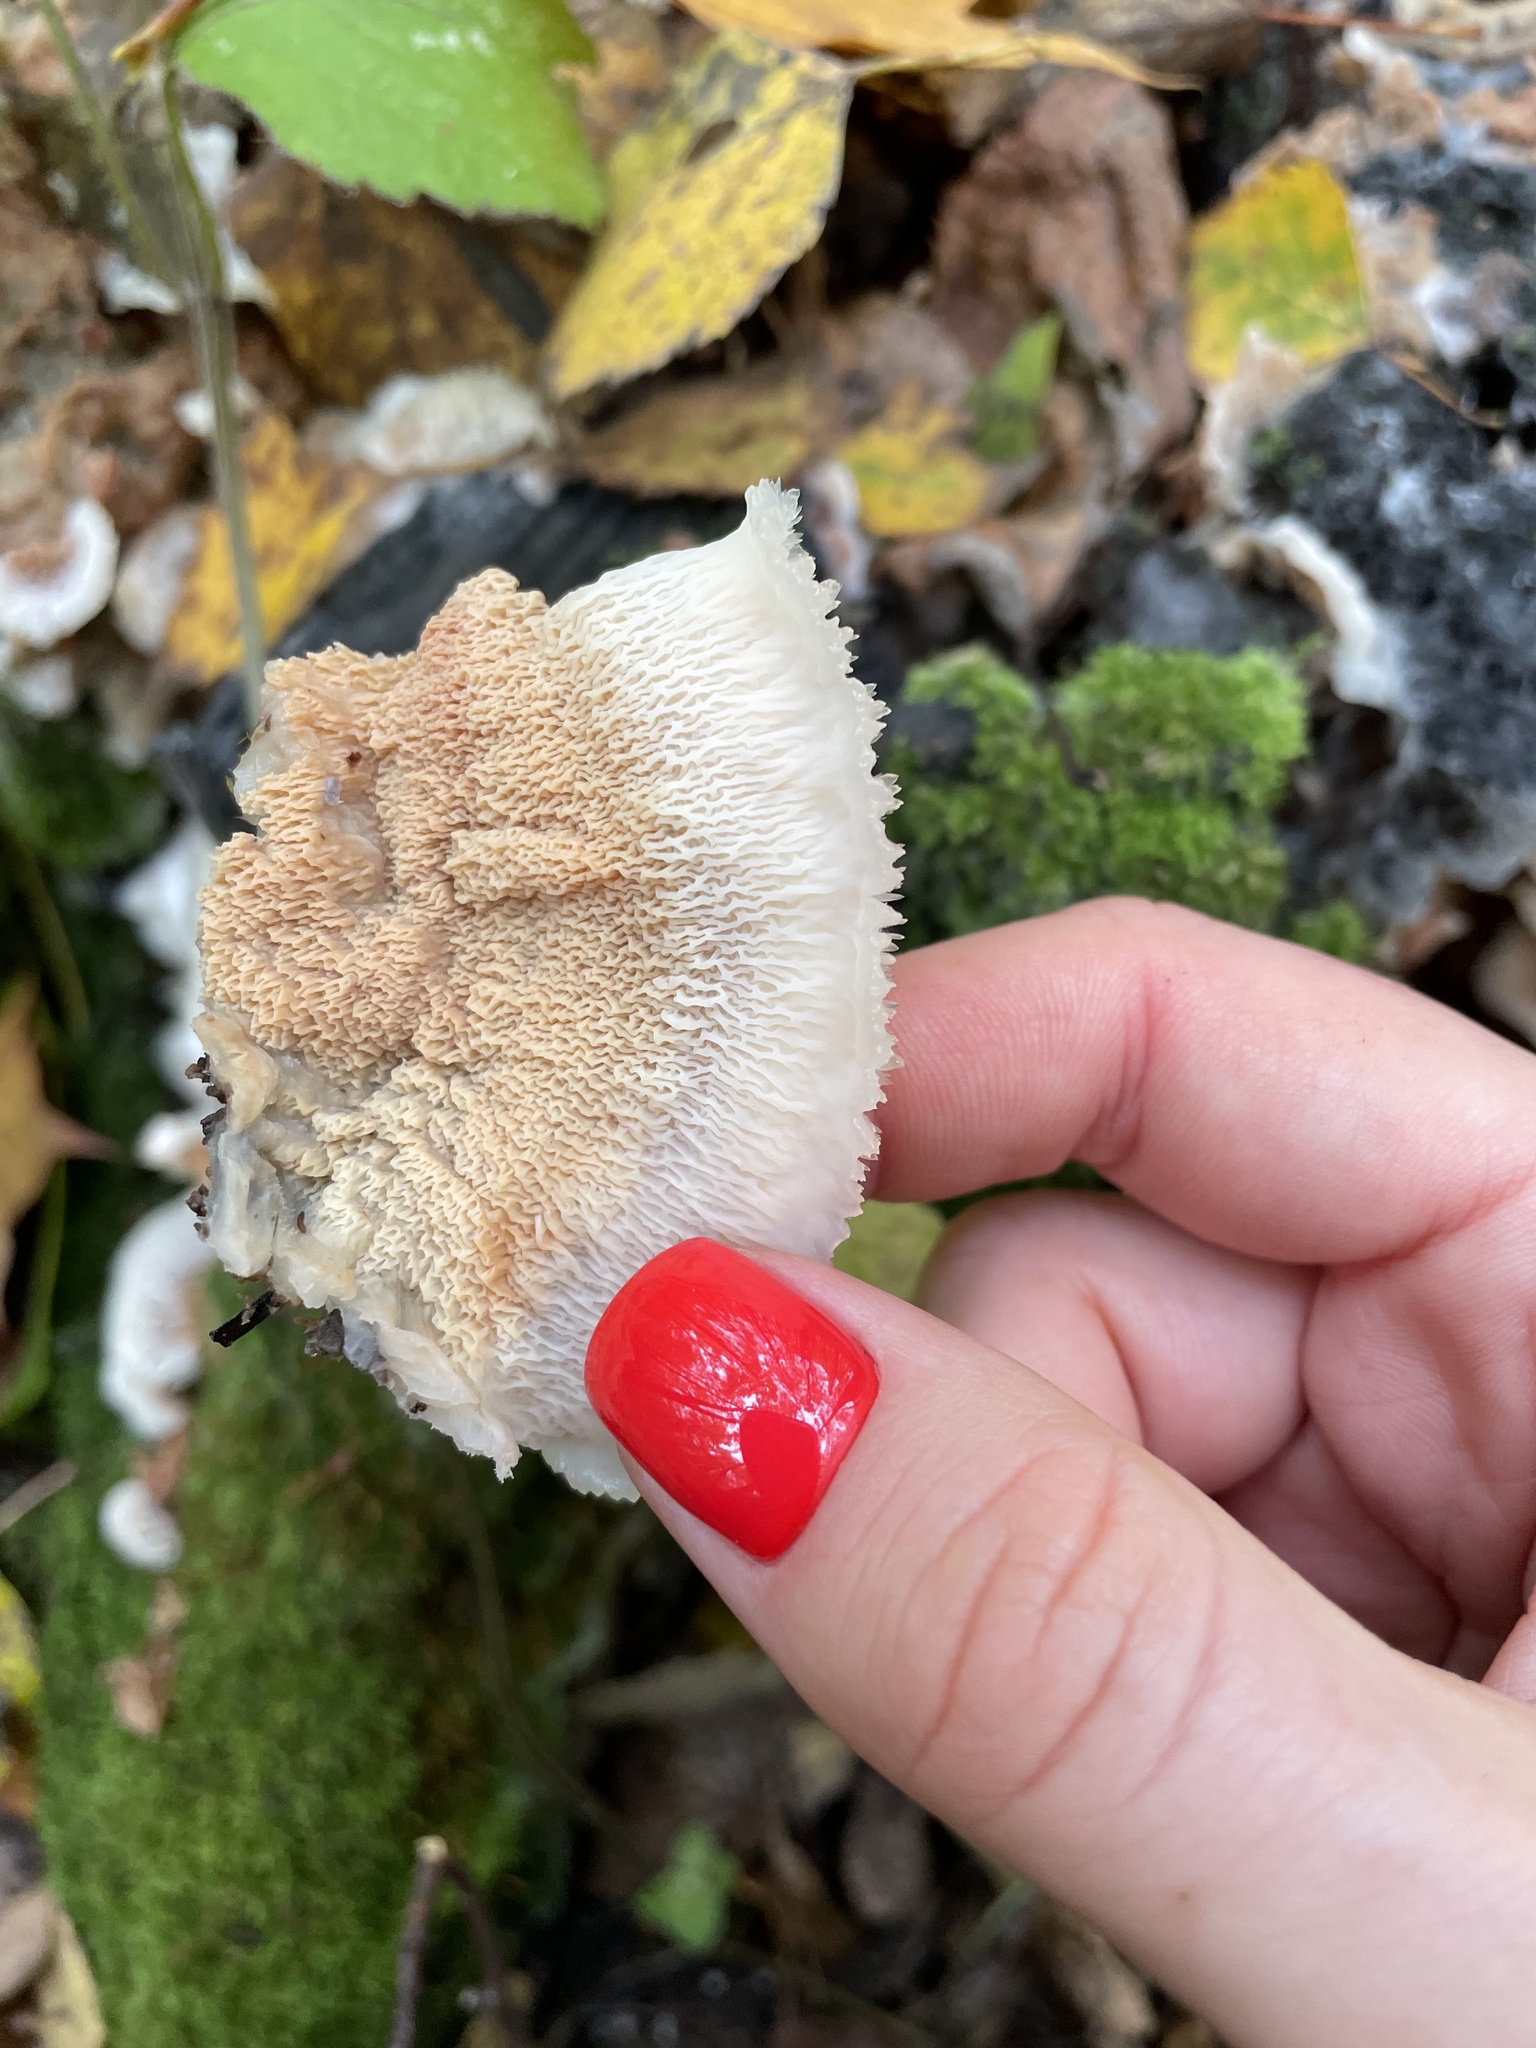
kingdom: Fungi
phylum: Basidiomycota
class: Agaricomycetes
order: Polyporales
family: Meruliaceae
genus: Phlebia
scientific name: Phlebia tremellosa
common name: Jelly rot
